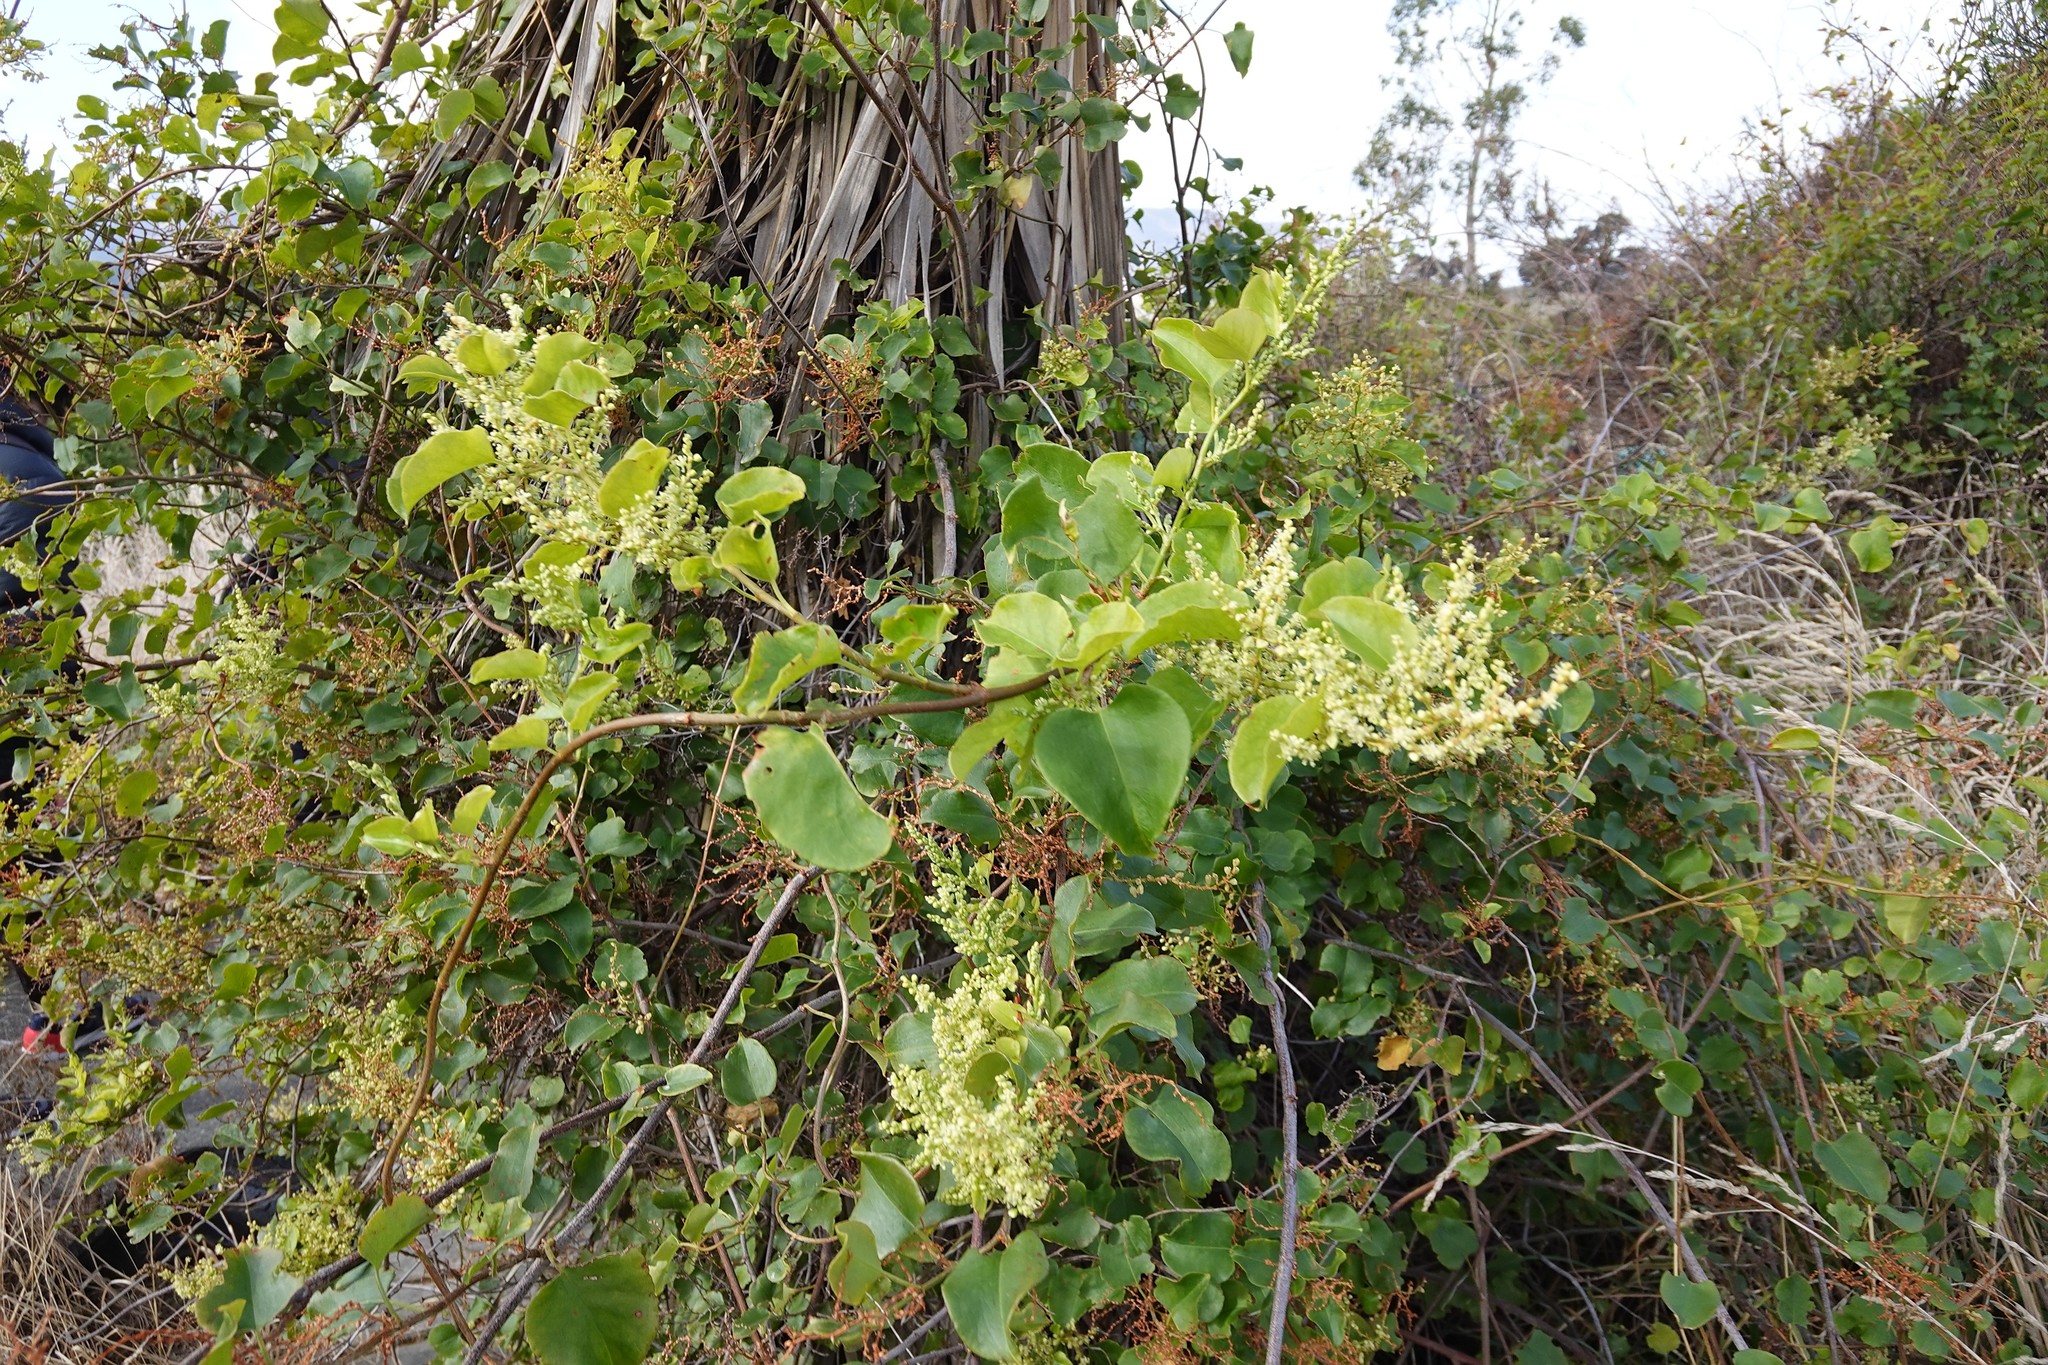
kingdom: Plantae
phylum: Tracheophyta
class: Magnoliopsida
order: Caryophyllales
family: Polygonaceae
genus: Muehlenbeckia
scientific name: Muehlenbeckia australis
